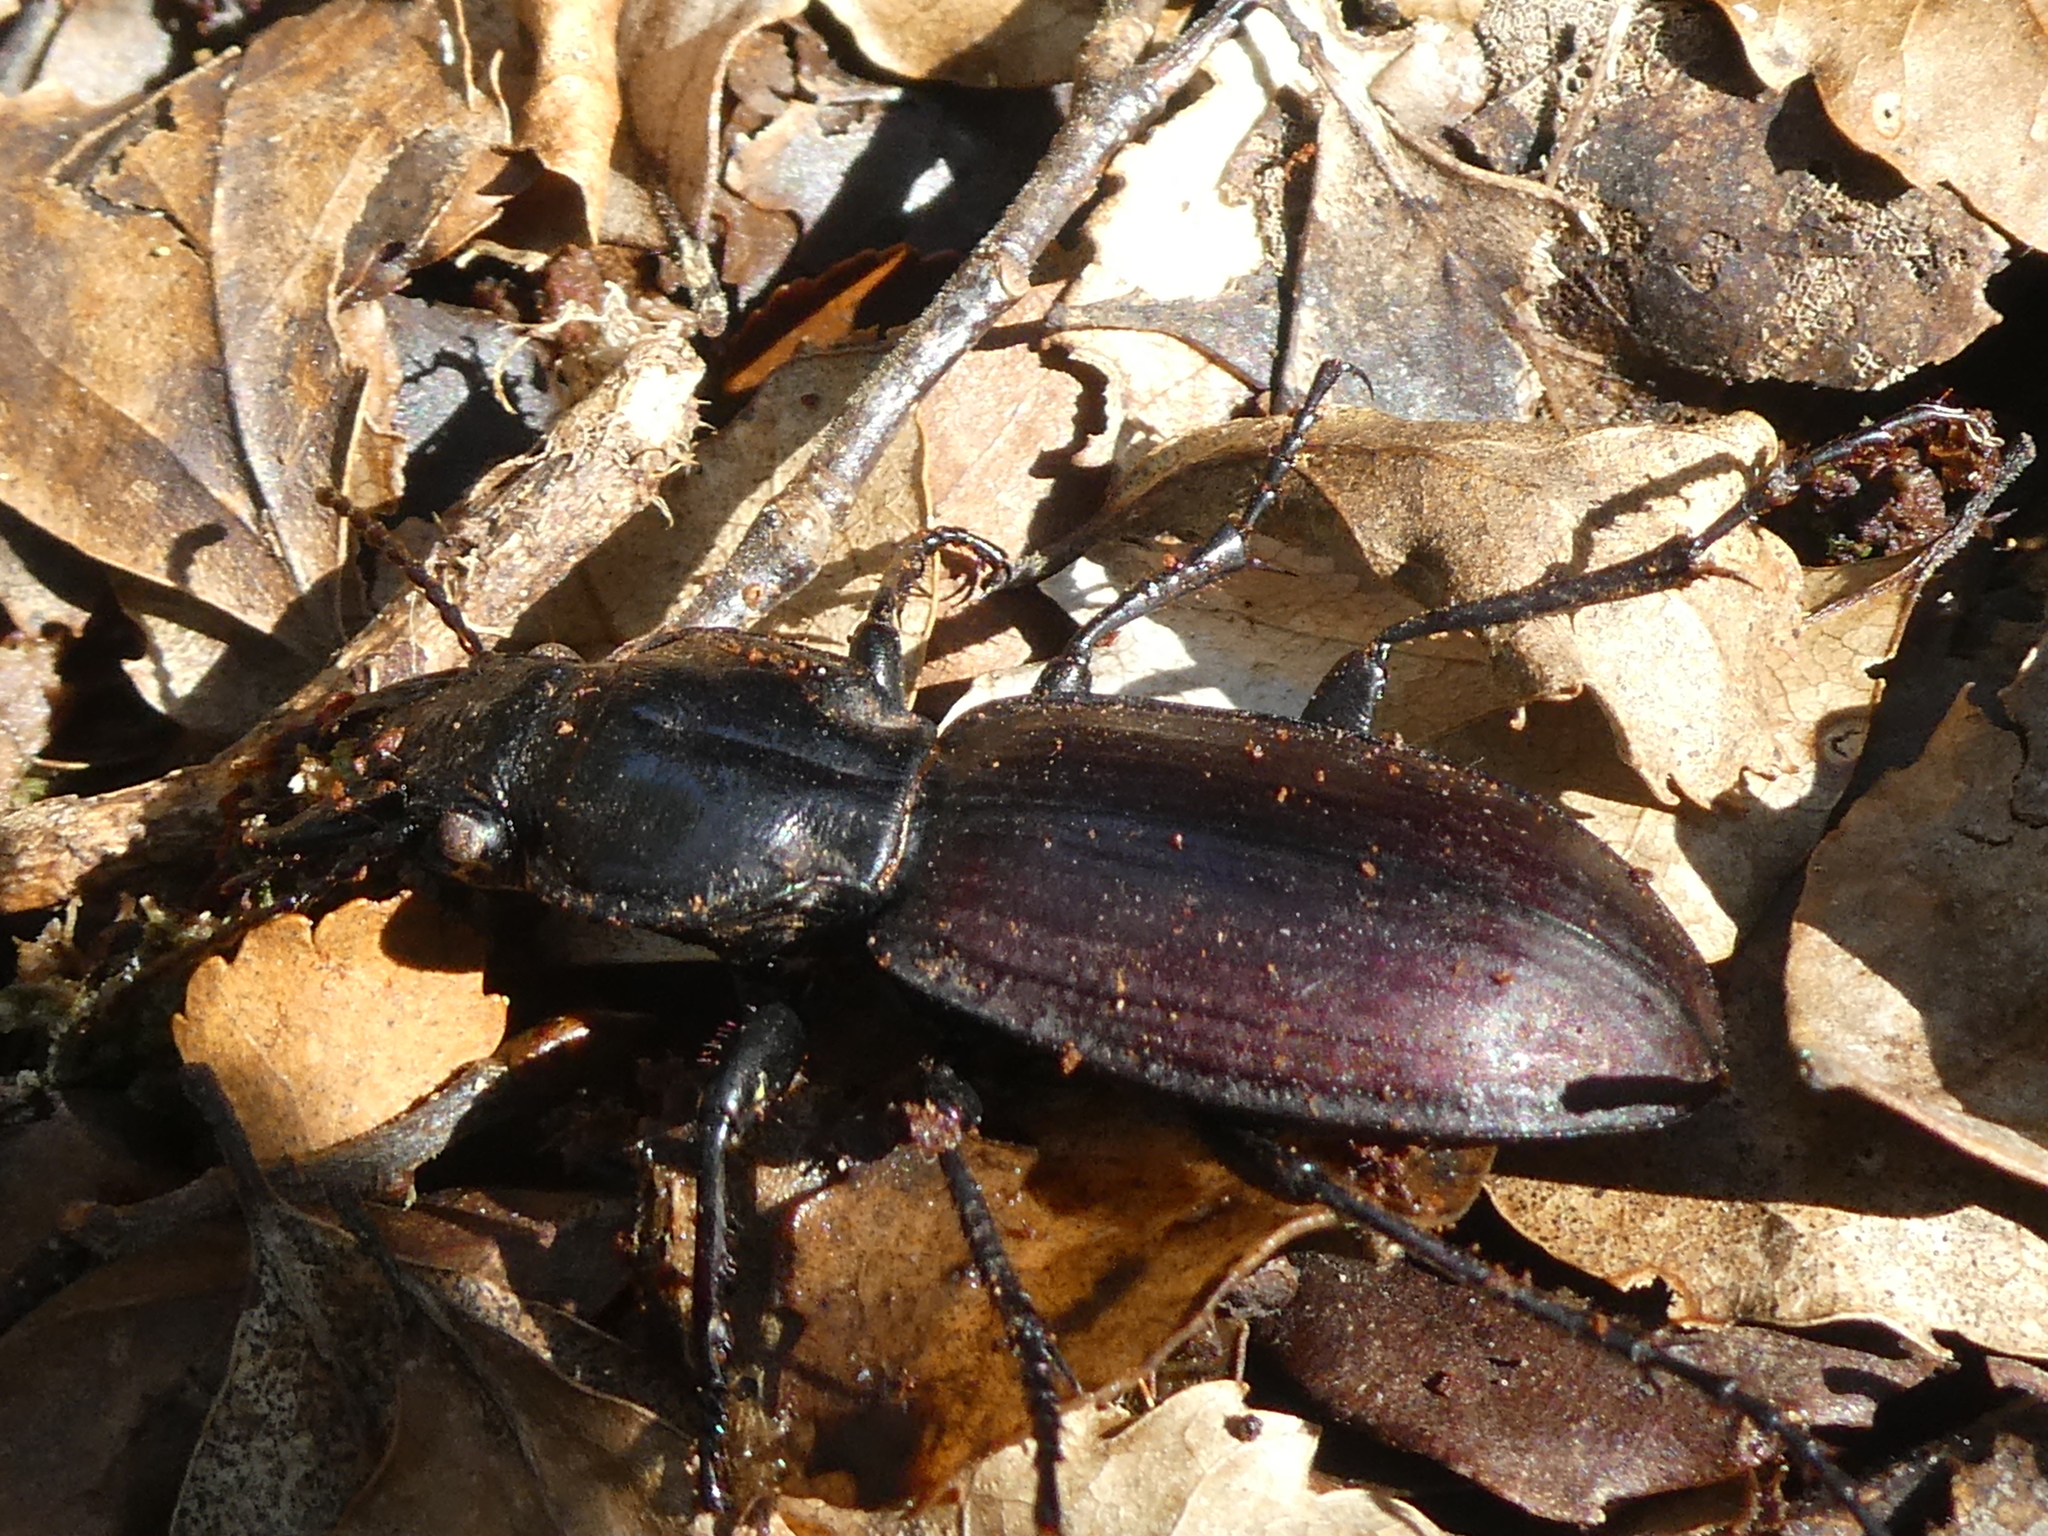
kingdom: Animalia
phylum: Arthropoda
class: Insecta
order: Coleoptera
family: Carabidae
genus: Mecodema
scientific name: Mecodema laterale
